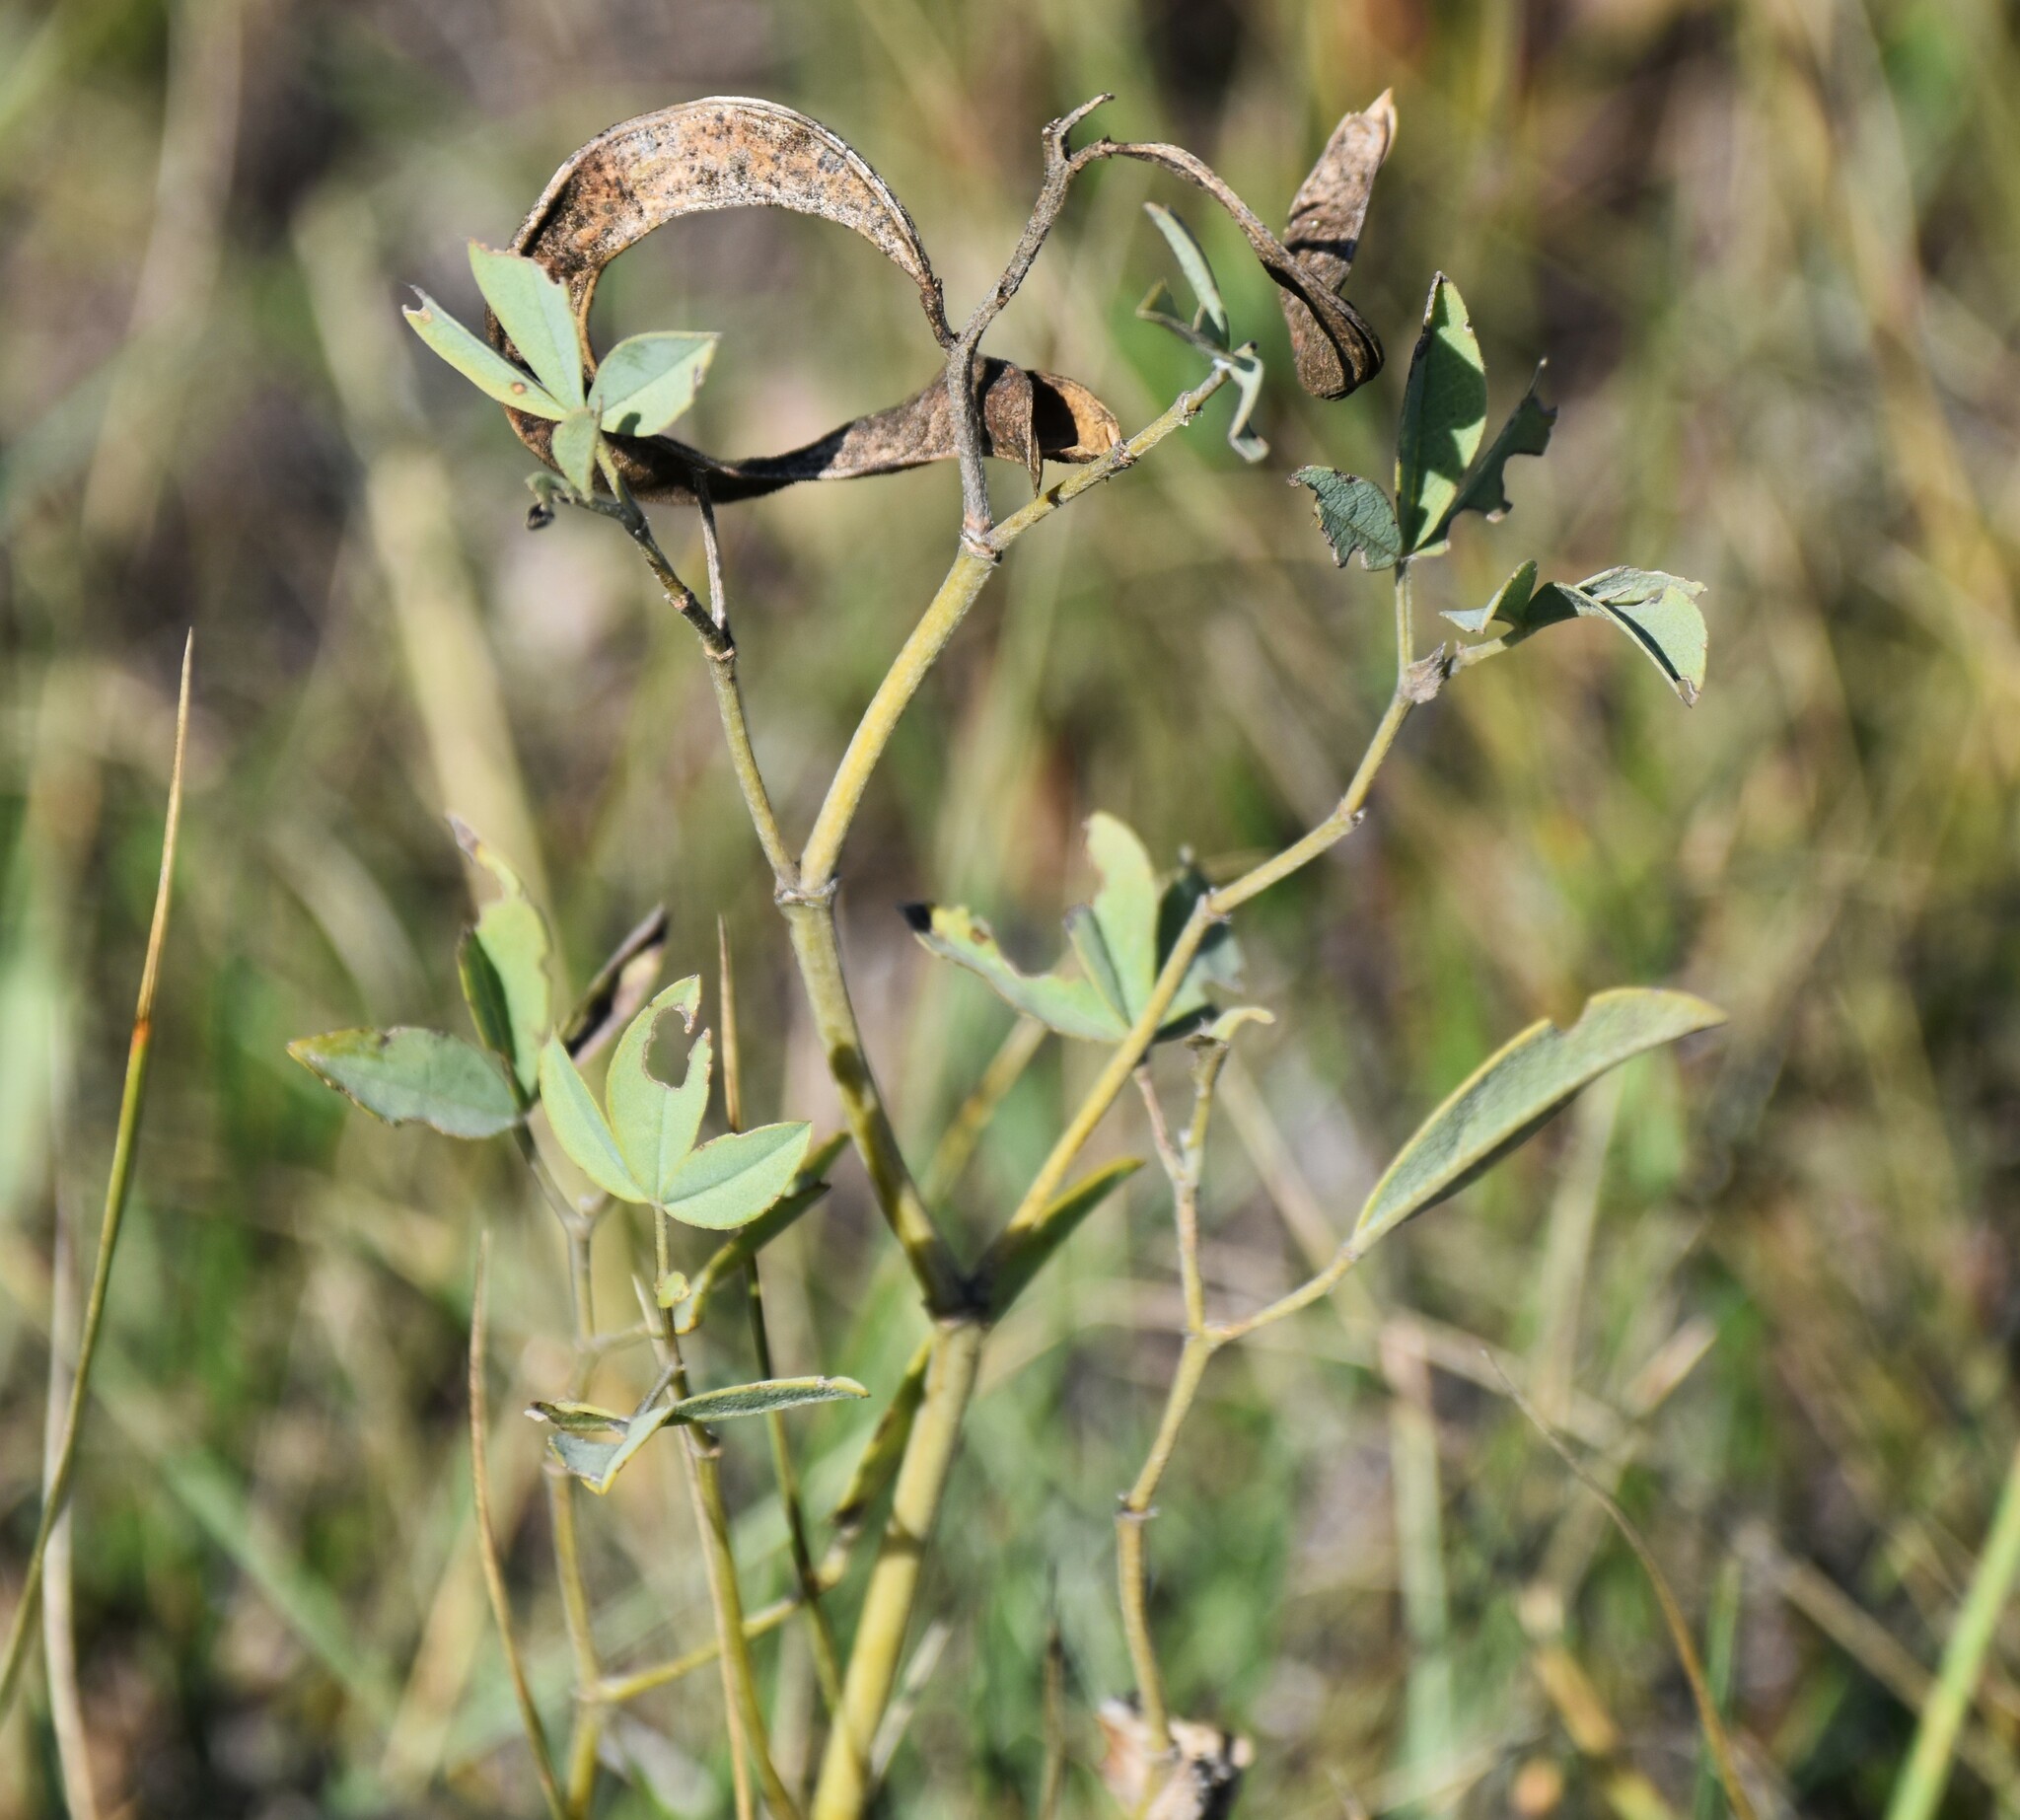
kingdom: Plantae
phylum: Tracheophyta
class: Magnoliopsida
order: Fabales
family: Fabaceae
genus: Thermopsis
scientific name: Thermopsis rhombifolia
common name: Circle-pod-pea
